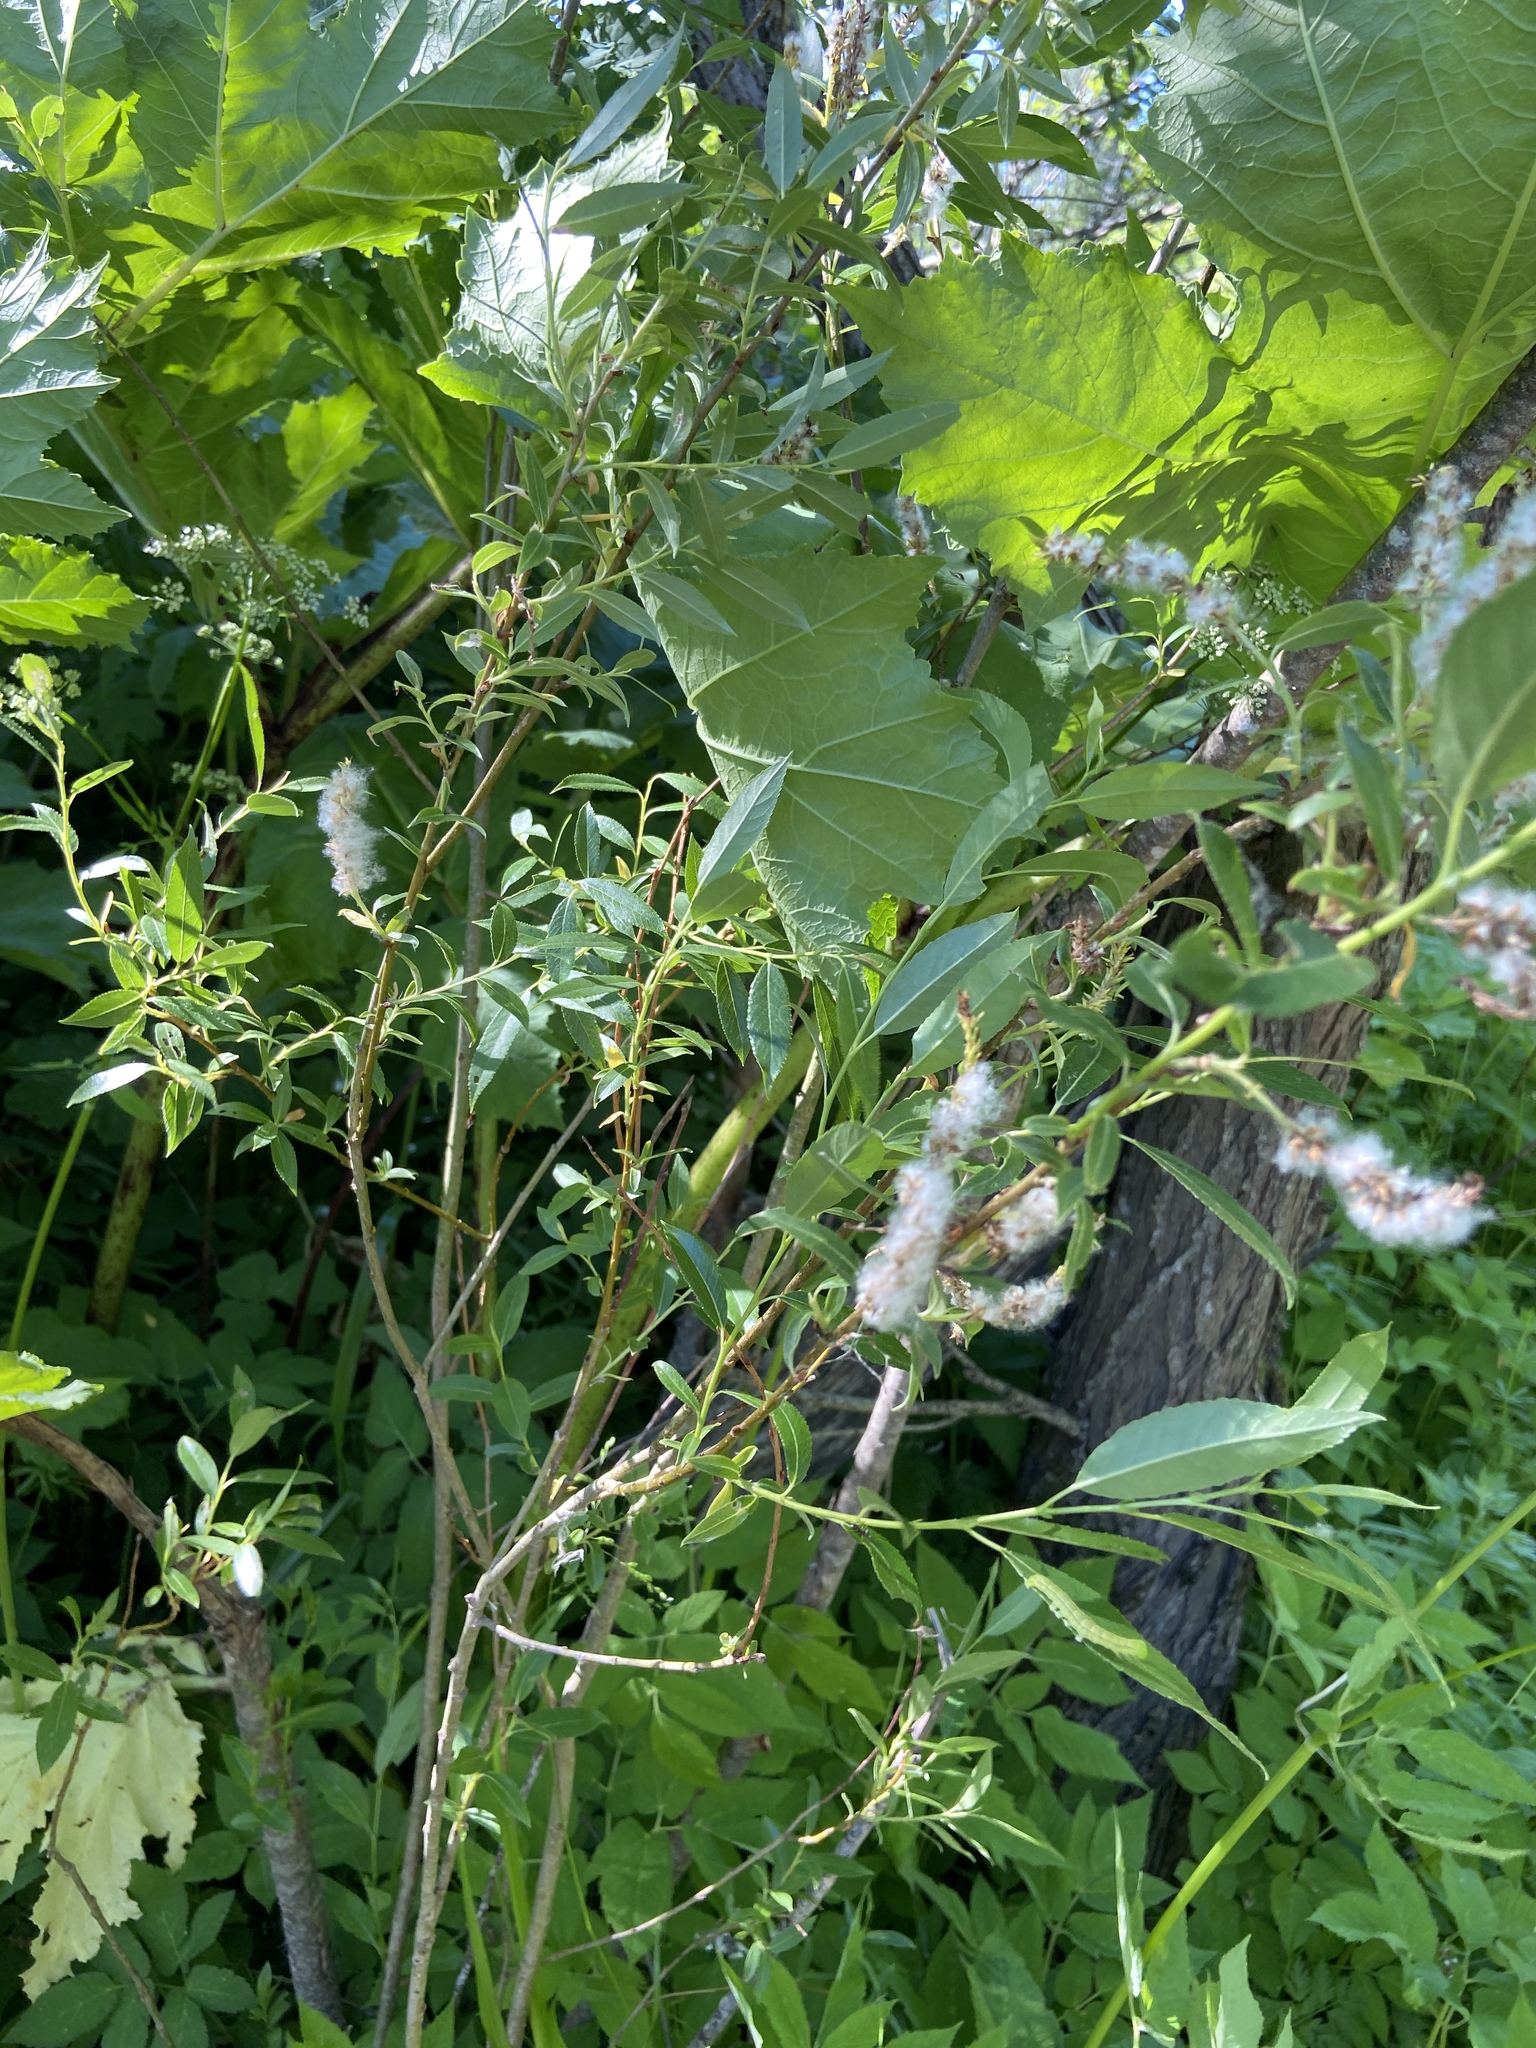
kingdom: Plantae
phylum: Tracheophyta
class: Magnoliopsida
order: Malpighiales
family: Salicaceae
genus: Salix
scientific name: Salix triandra
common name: Almond willow
